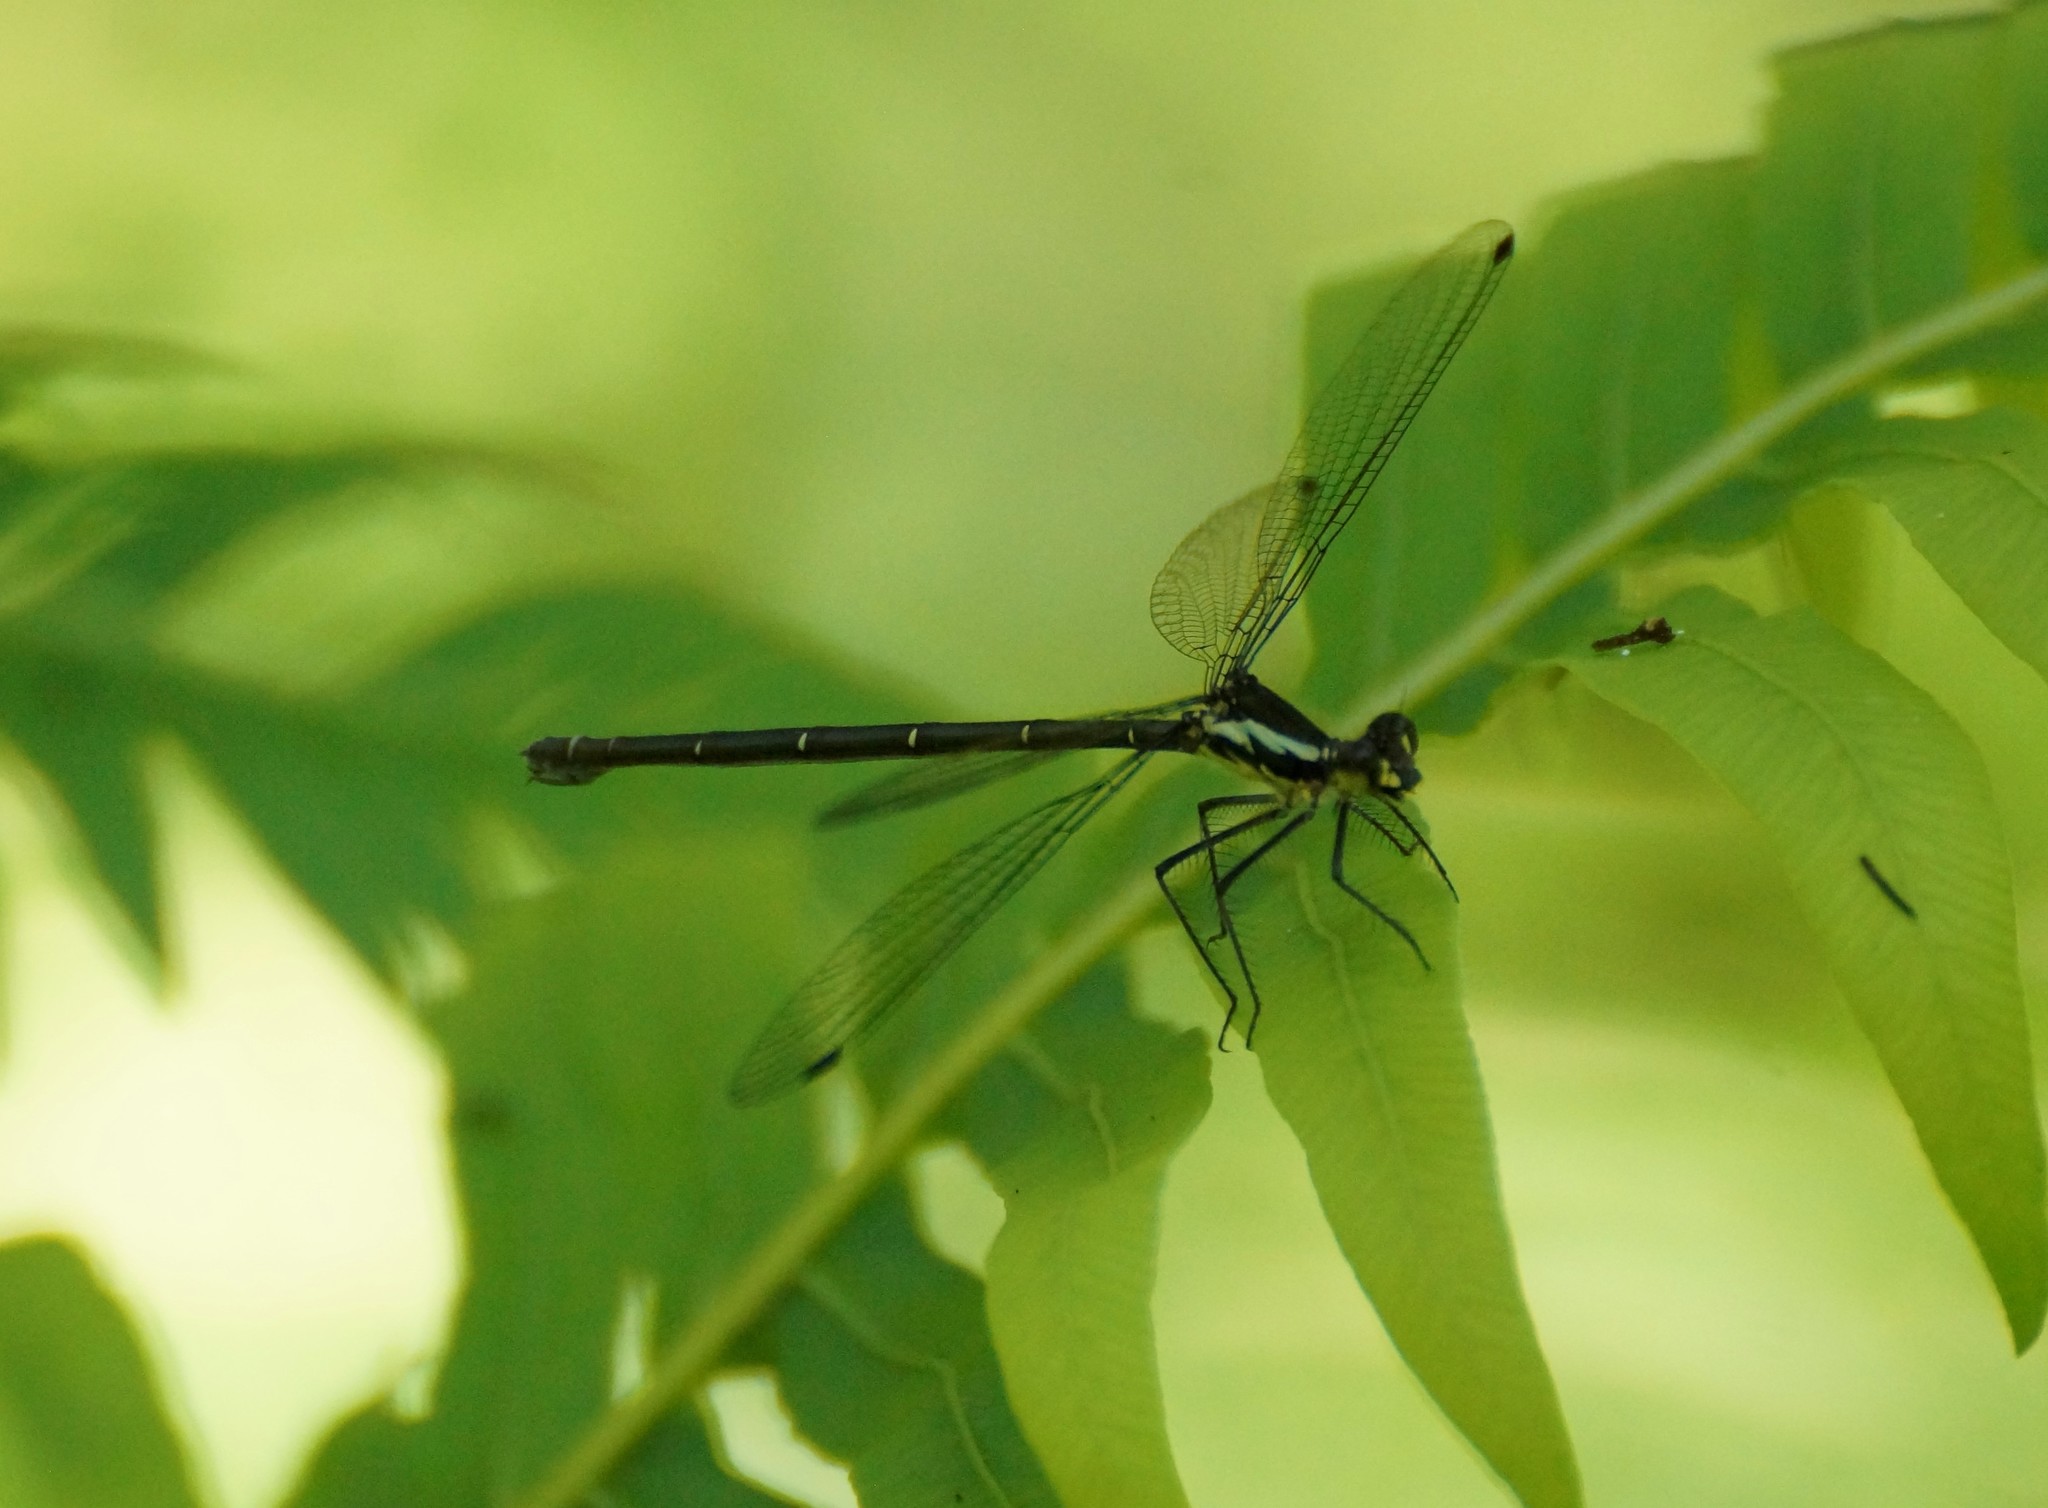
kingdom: Animalia
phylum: Arthropoda
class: Insecta
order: Odonata
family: Argiolestidae
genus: Austroargiolestes
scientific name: Austroargiolestes icteromelas
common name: Common flatwing
